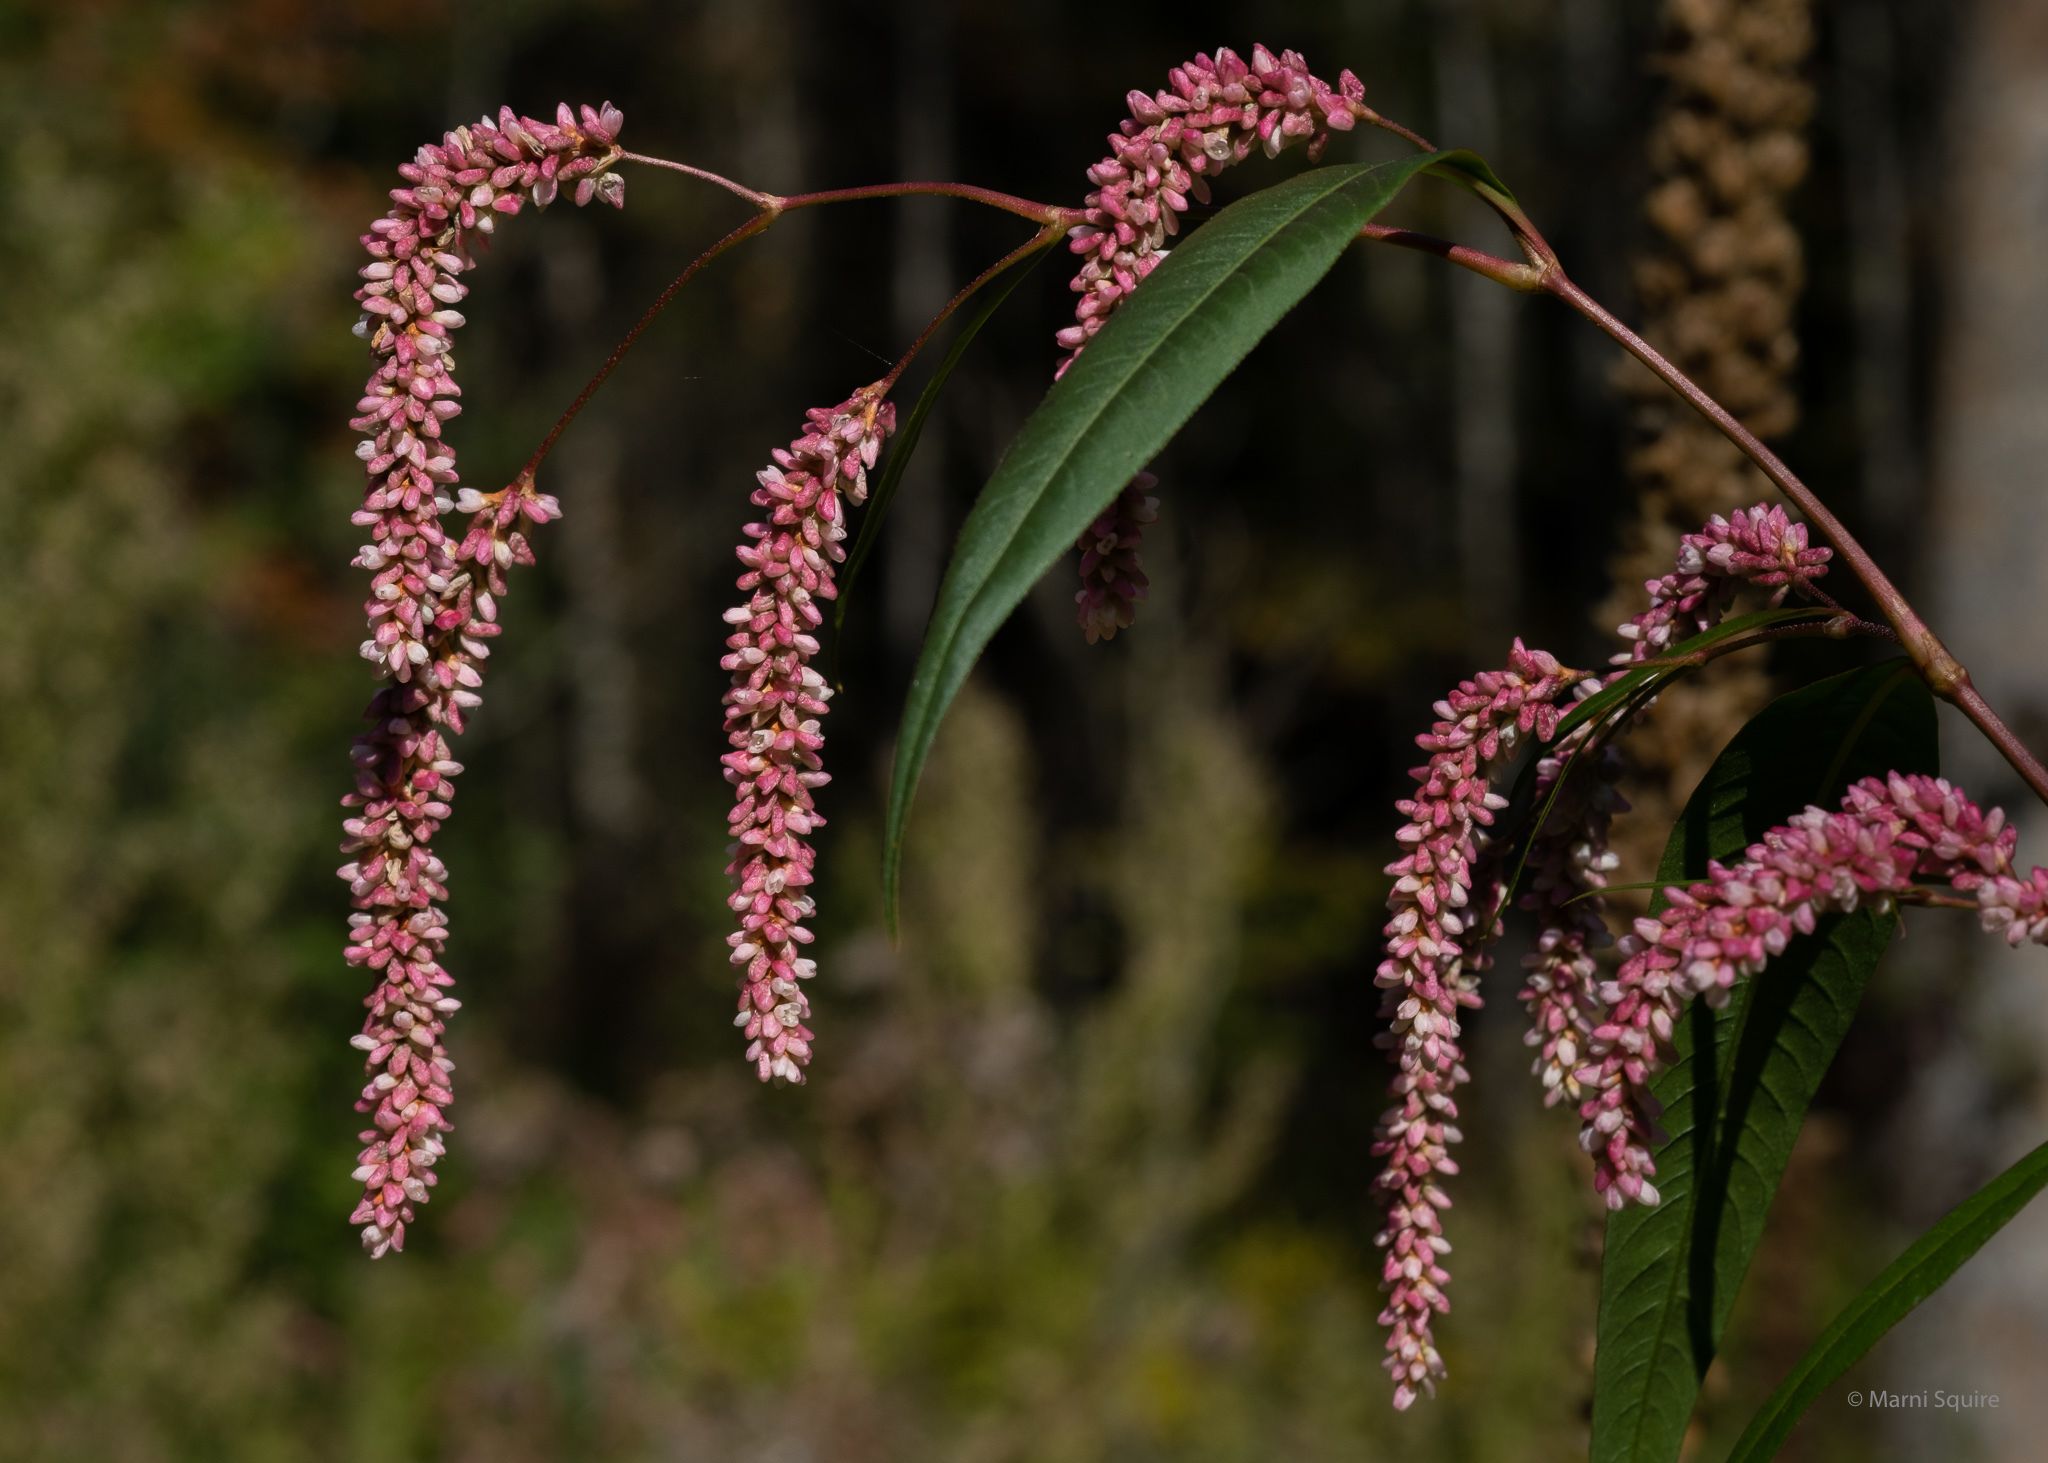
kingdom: Plantae
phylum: Tracheophyta
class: Magnoliopsida
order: Caryophyllales
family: Polygonaceae
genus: Persicaria
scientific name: Persicaria lapathifolia
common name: Curlytop knotweed
